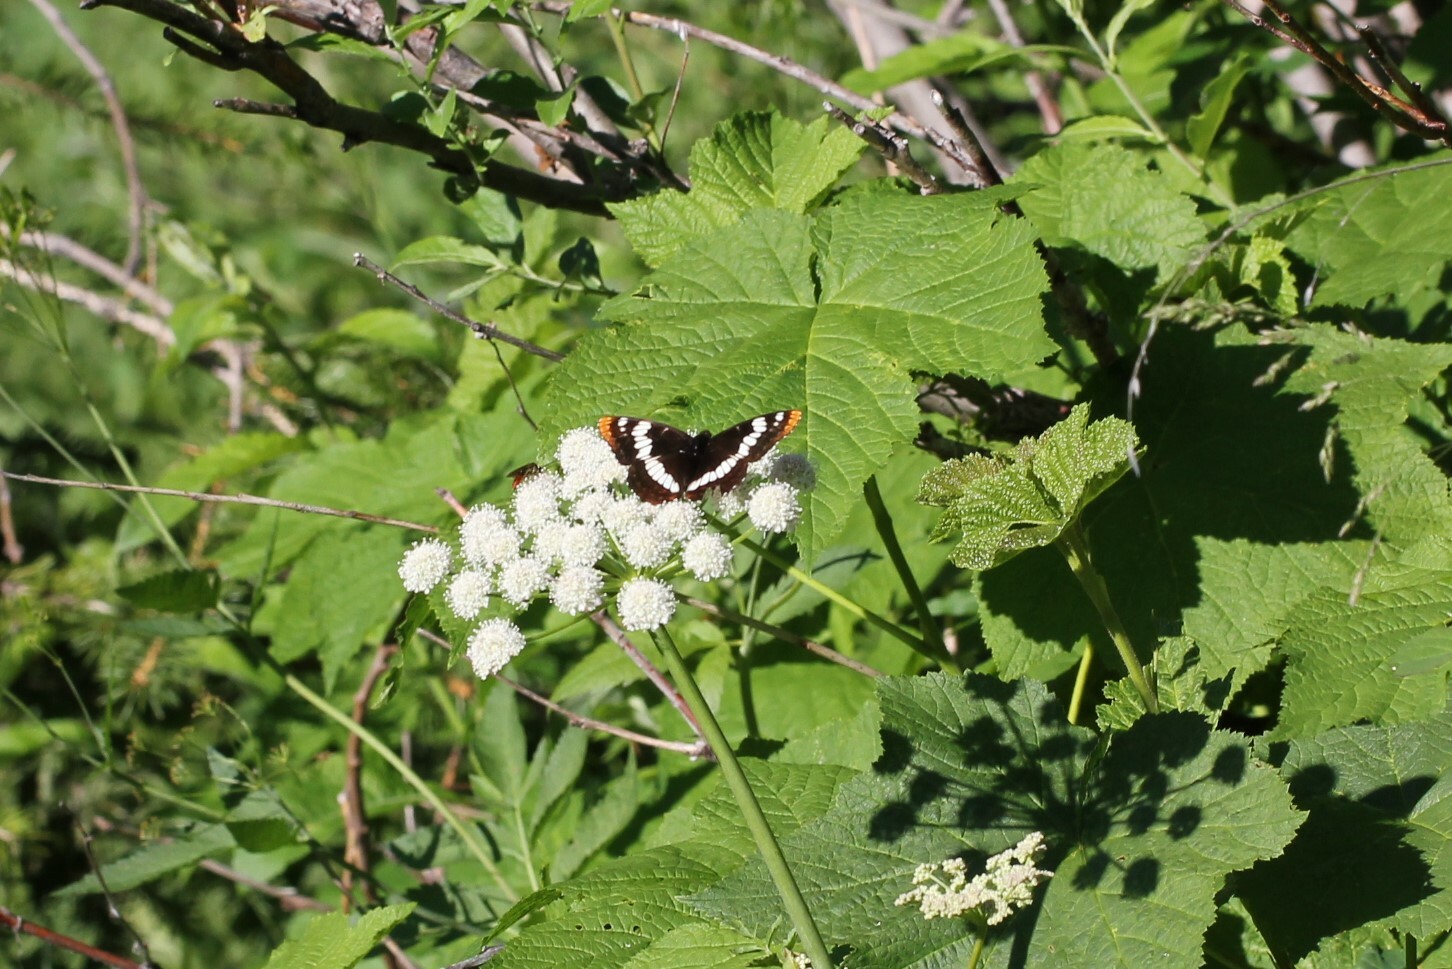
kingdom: Animalia
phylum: Arthropoda
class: Insecta
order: Lepidoptera
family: Nymphalidae
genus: Limenitis
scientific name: Limenitis lorquini
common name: Lorquin's admiral
